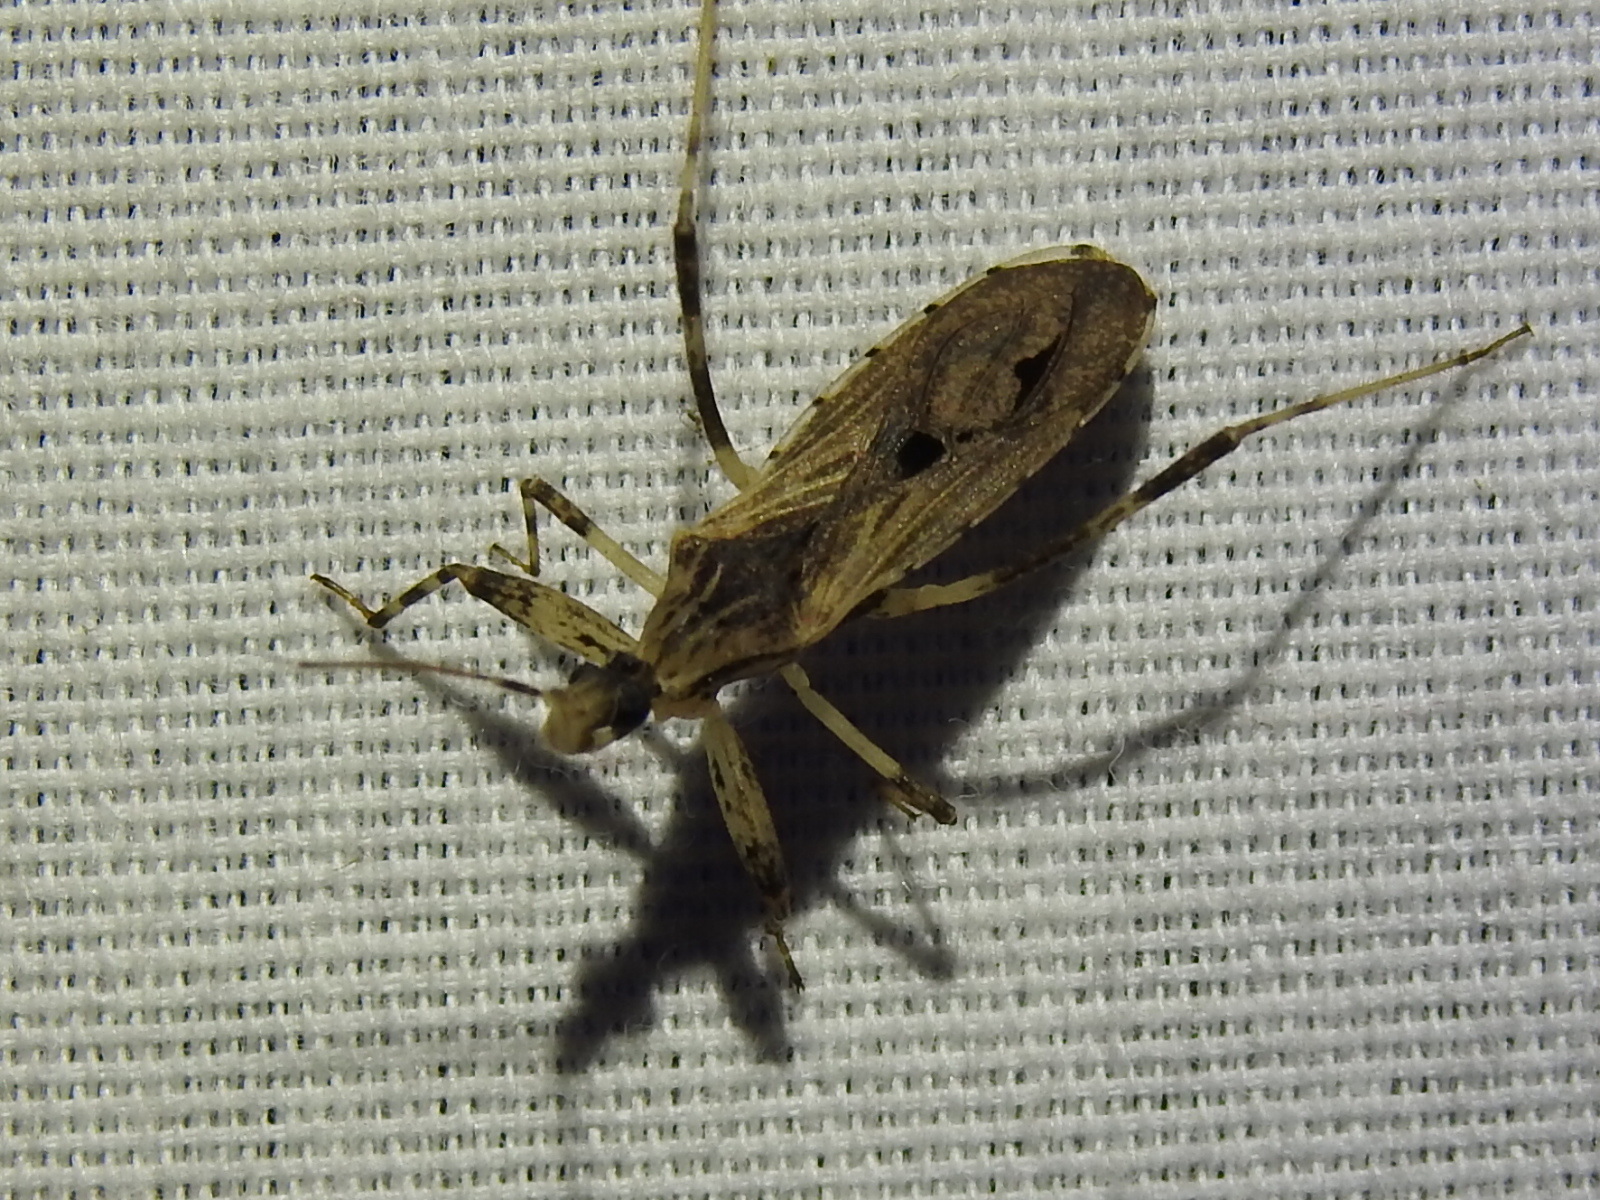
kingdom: Animalia
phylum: Arthropoda
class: Insecta
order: Hemiptera
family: Reduviidae
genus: Oncocephalus
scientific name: Oncocephalus geniculatus
